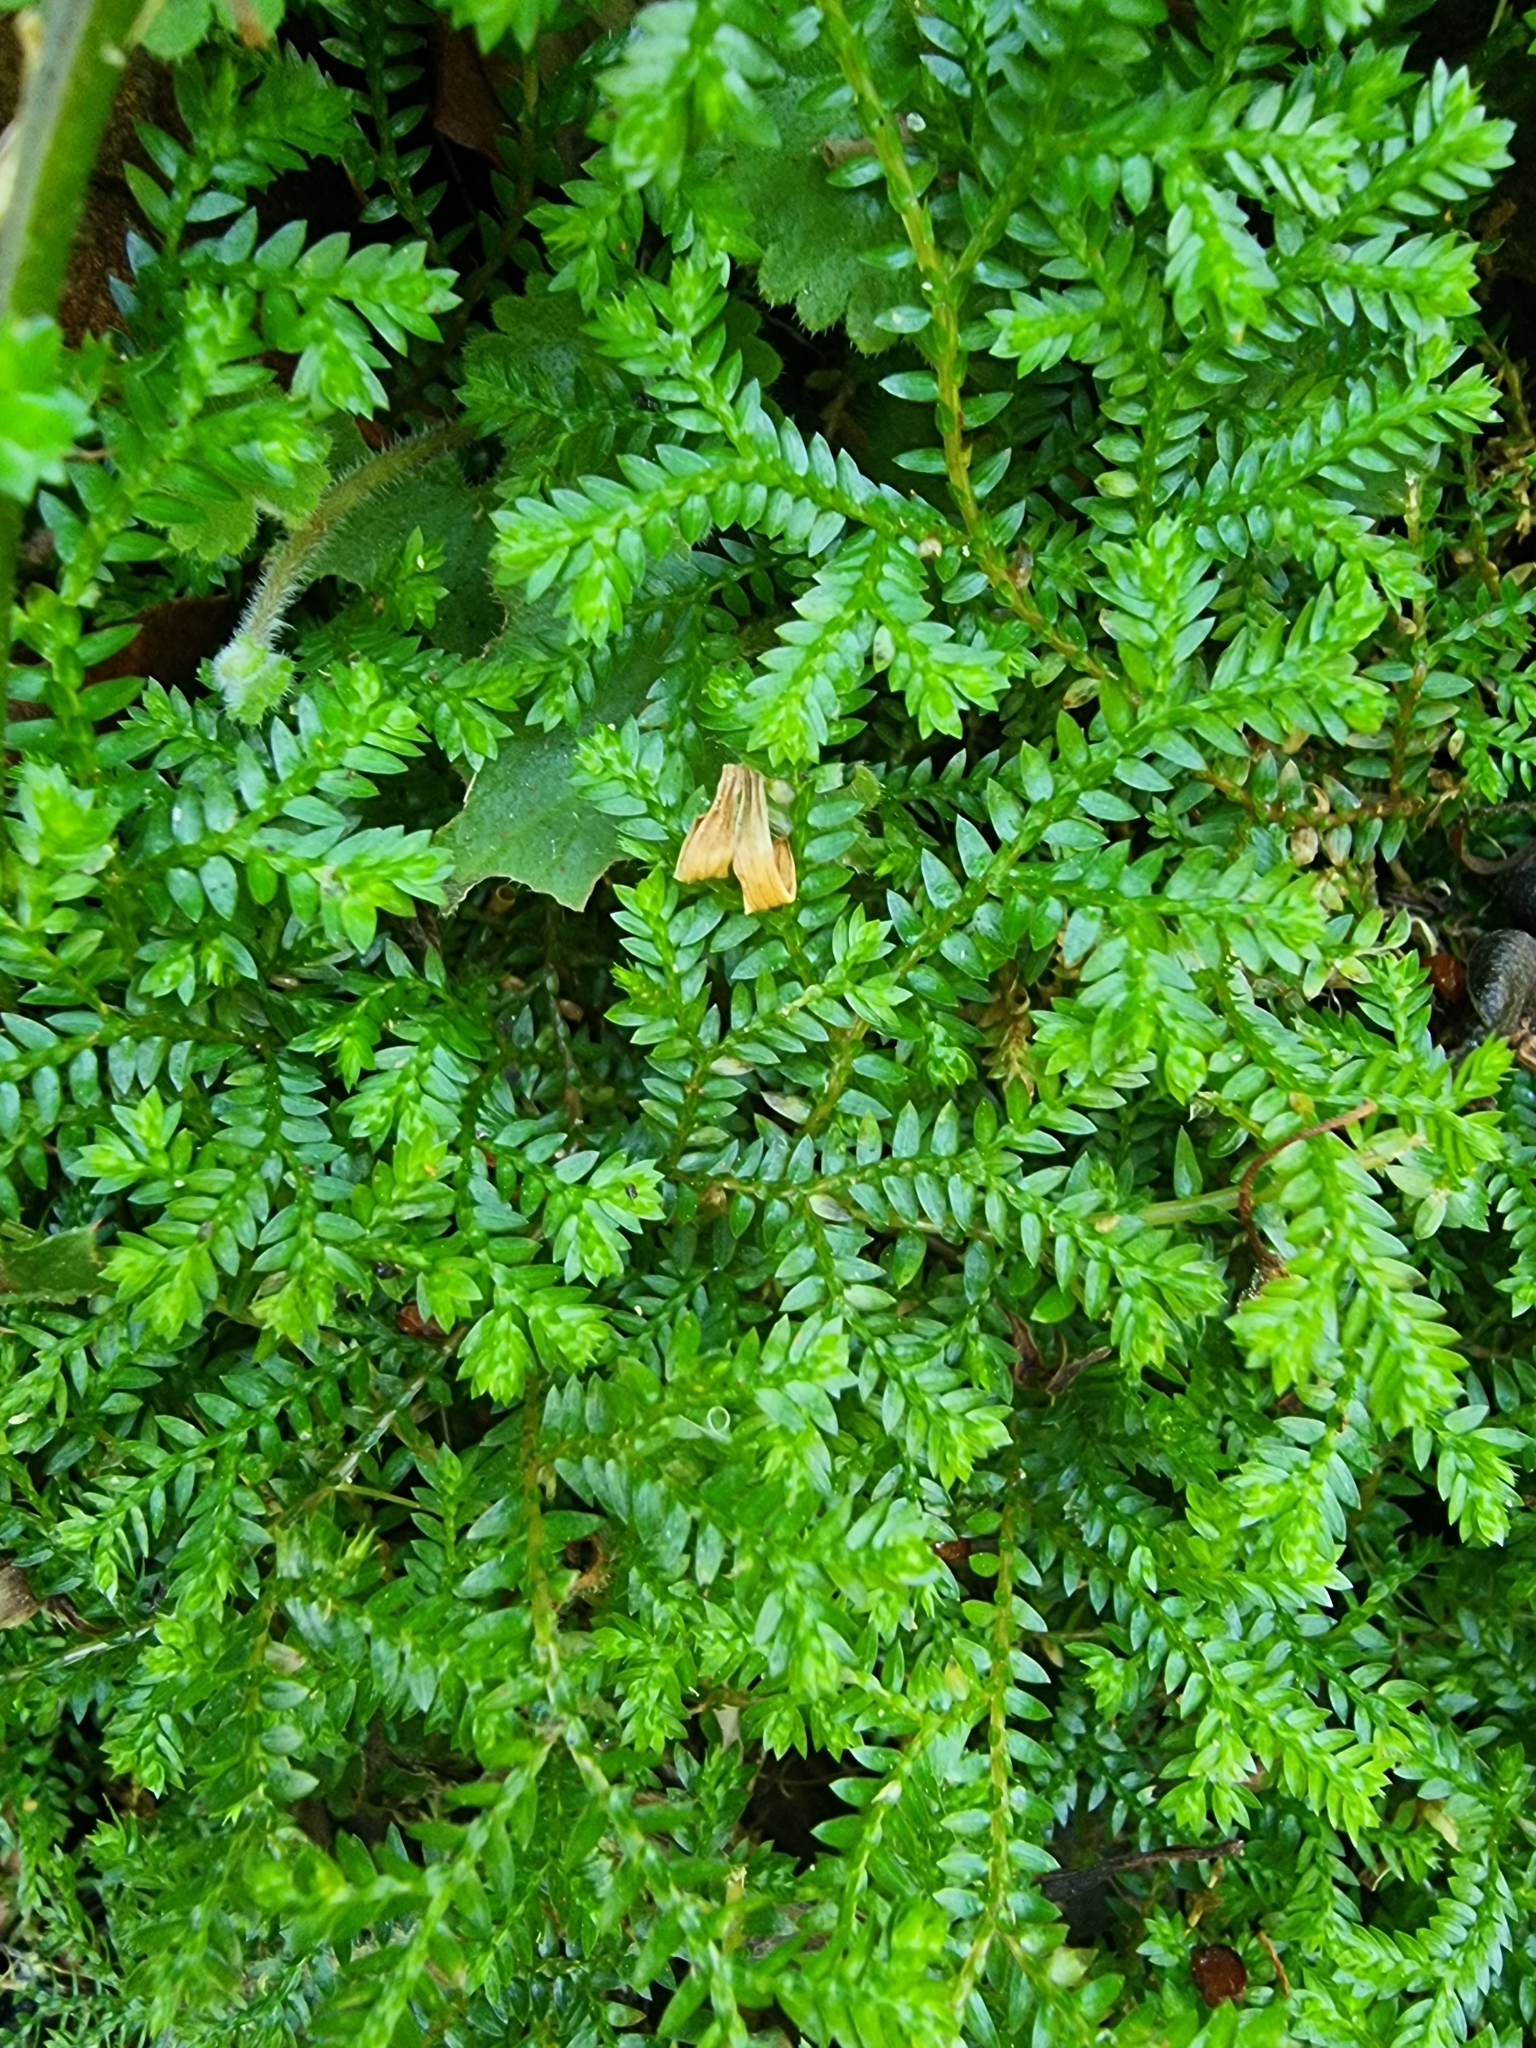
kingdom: Plantae
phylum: Tracheophyta
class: Lycopodiopsida
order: Selaginellales
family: Selaginellaceae
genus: Selaginella
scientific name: Selaginella denticulata
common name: Toothed-leaved clubmoss
